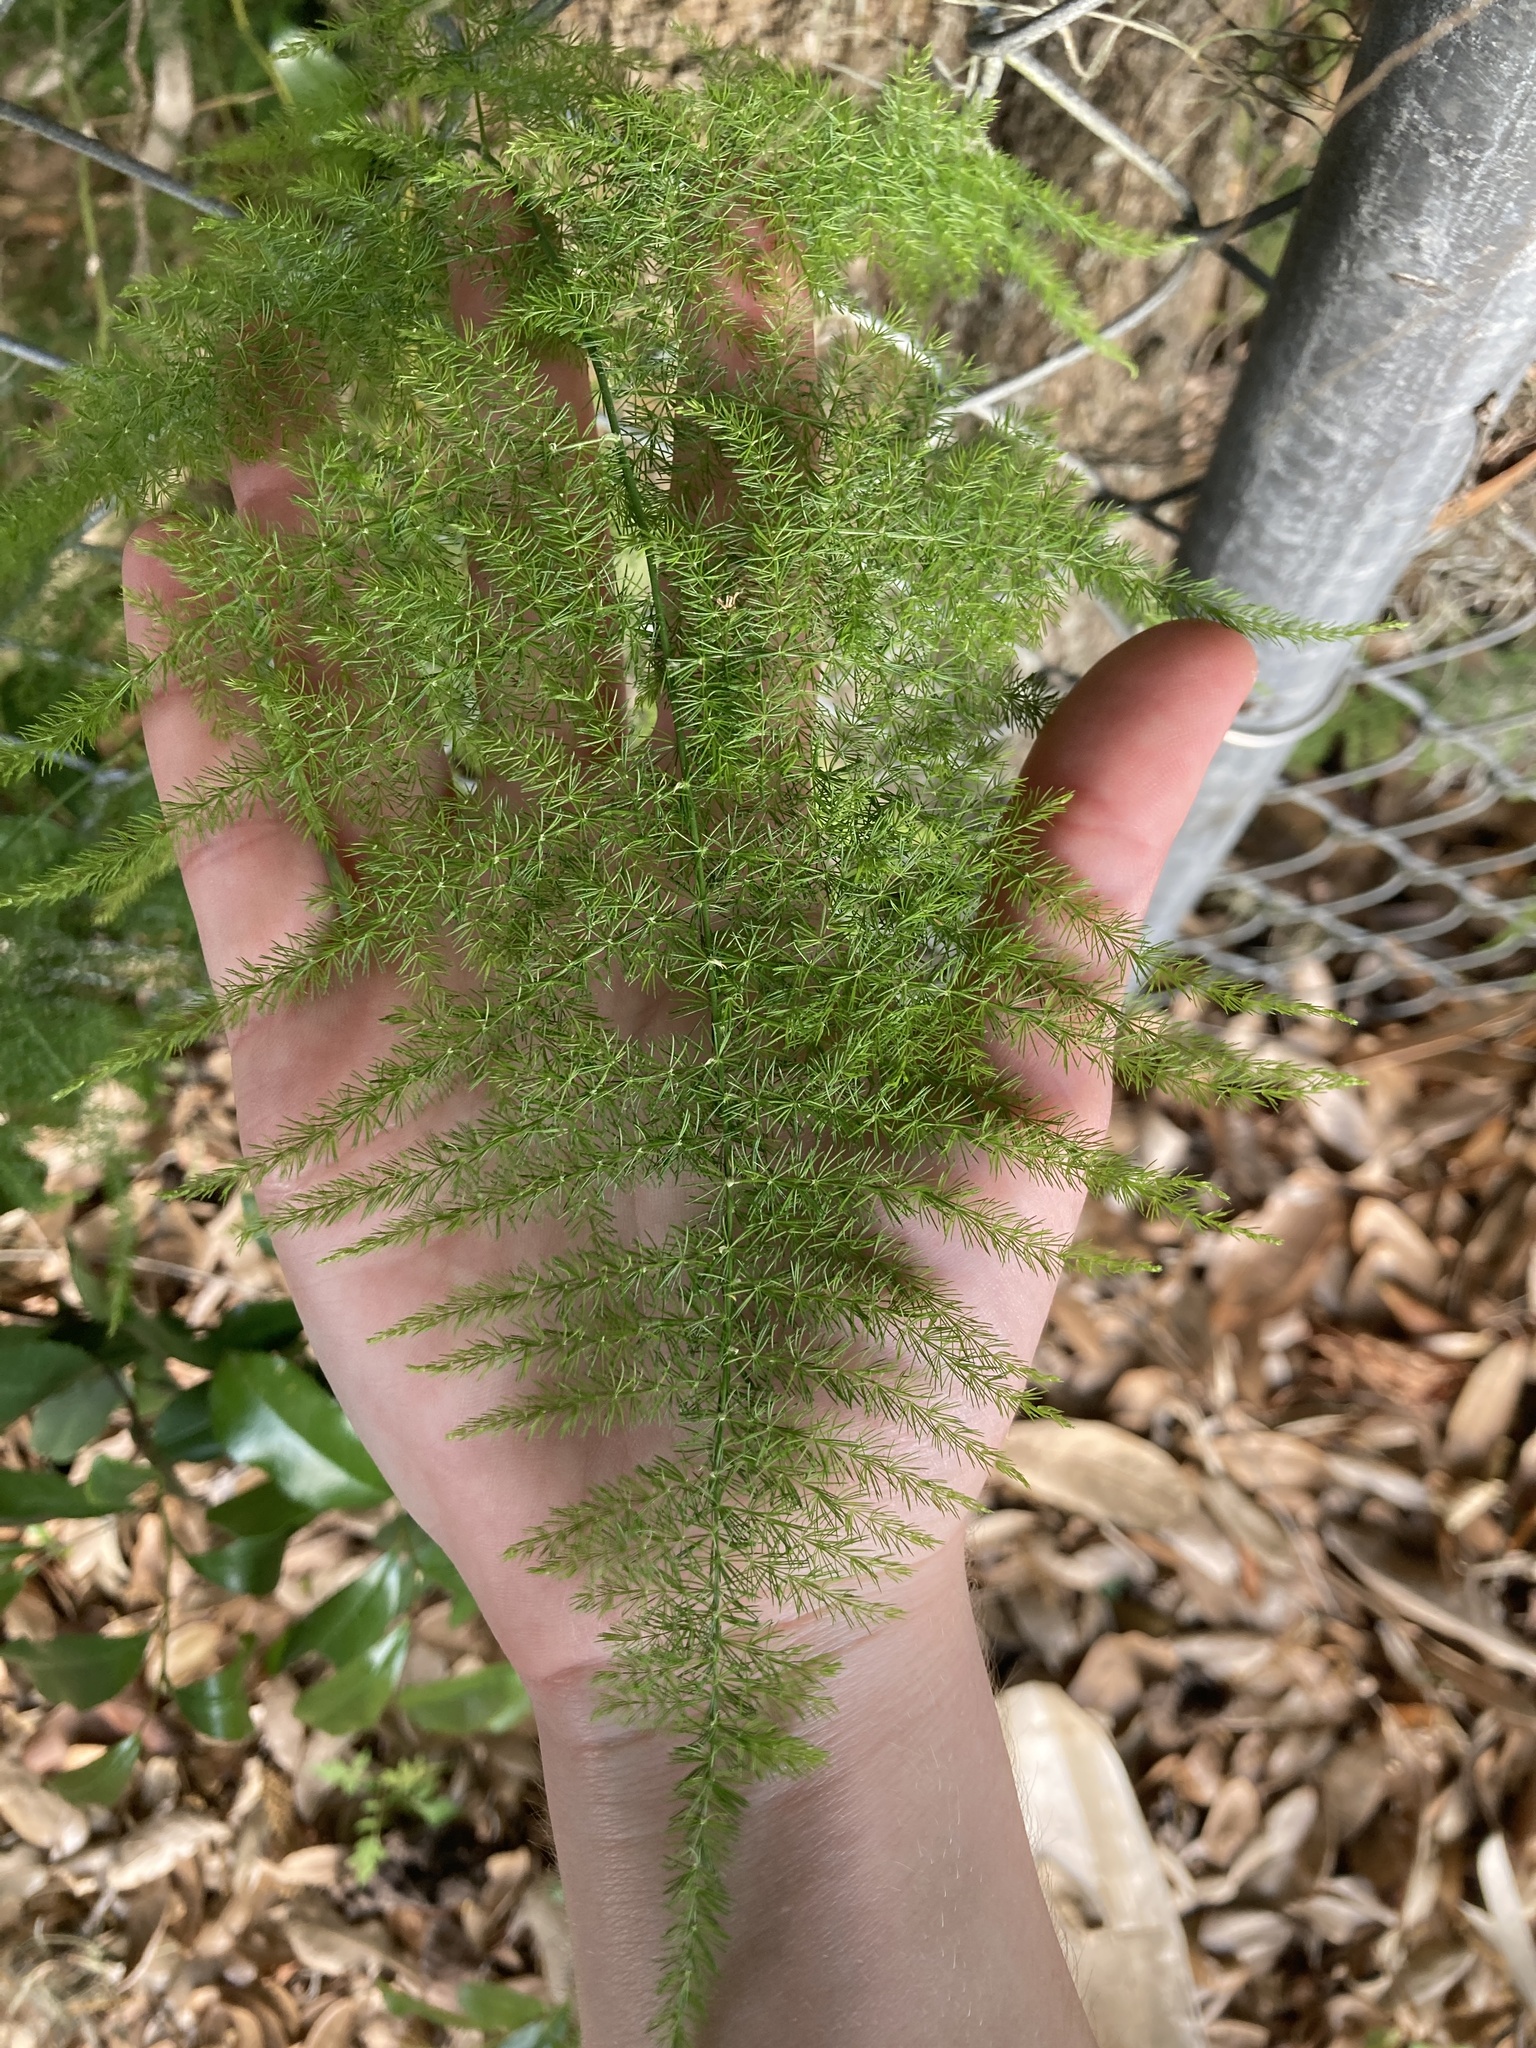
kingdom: Plantae
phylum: Tracheophyta
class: Liliopsida
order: Asparagales
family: Asparagaceae
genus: Asparagus
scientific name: Asparagus setaceus
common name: Common asparagus fern
